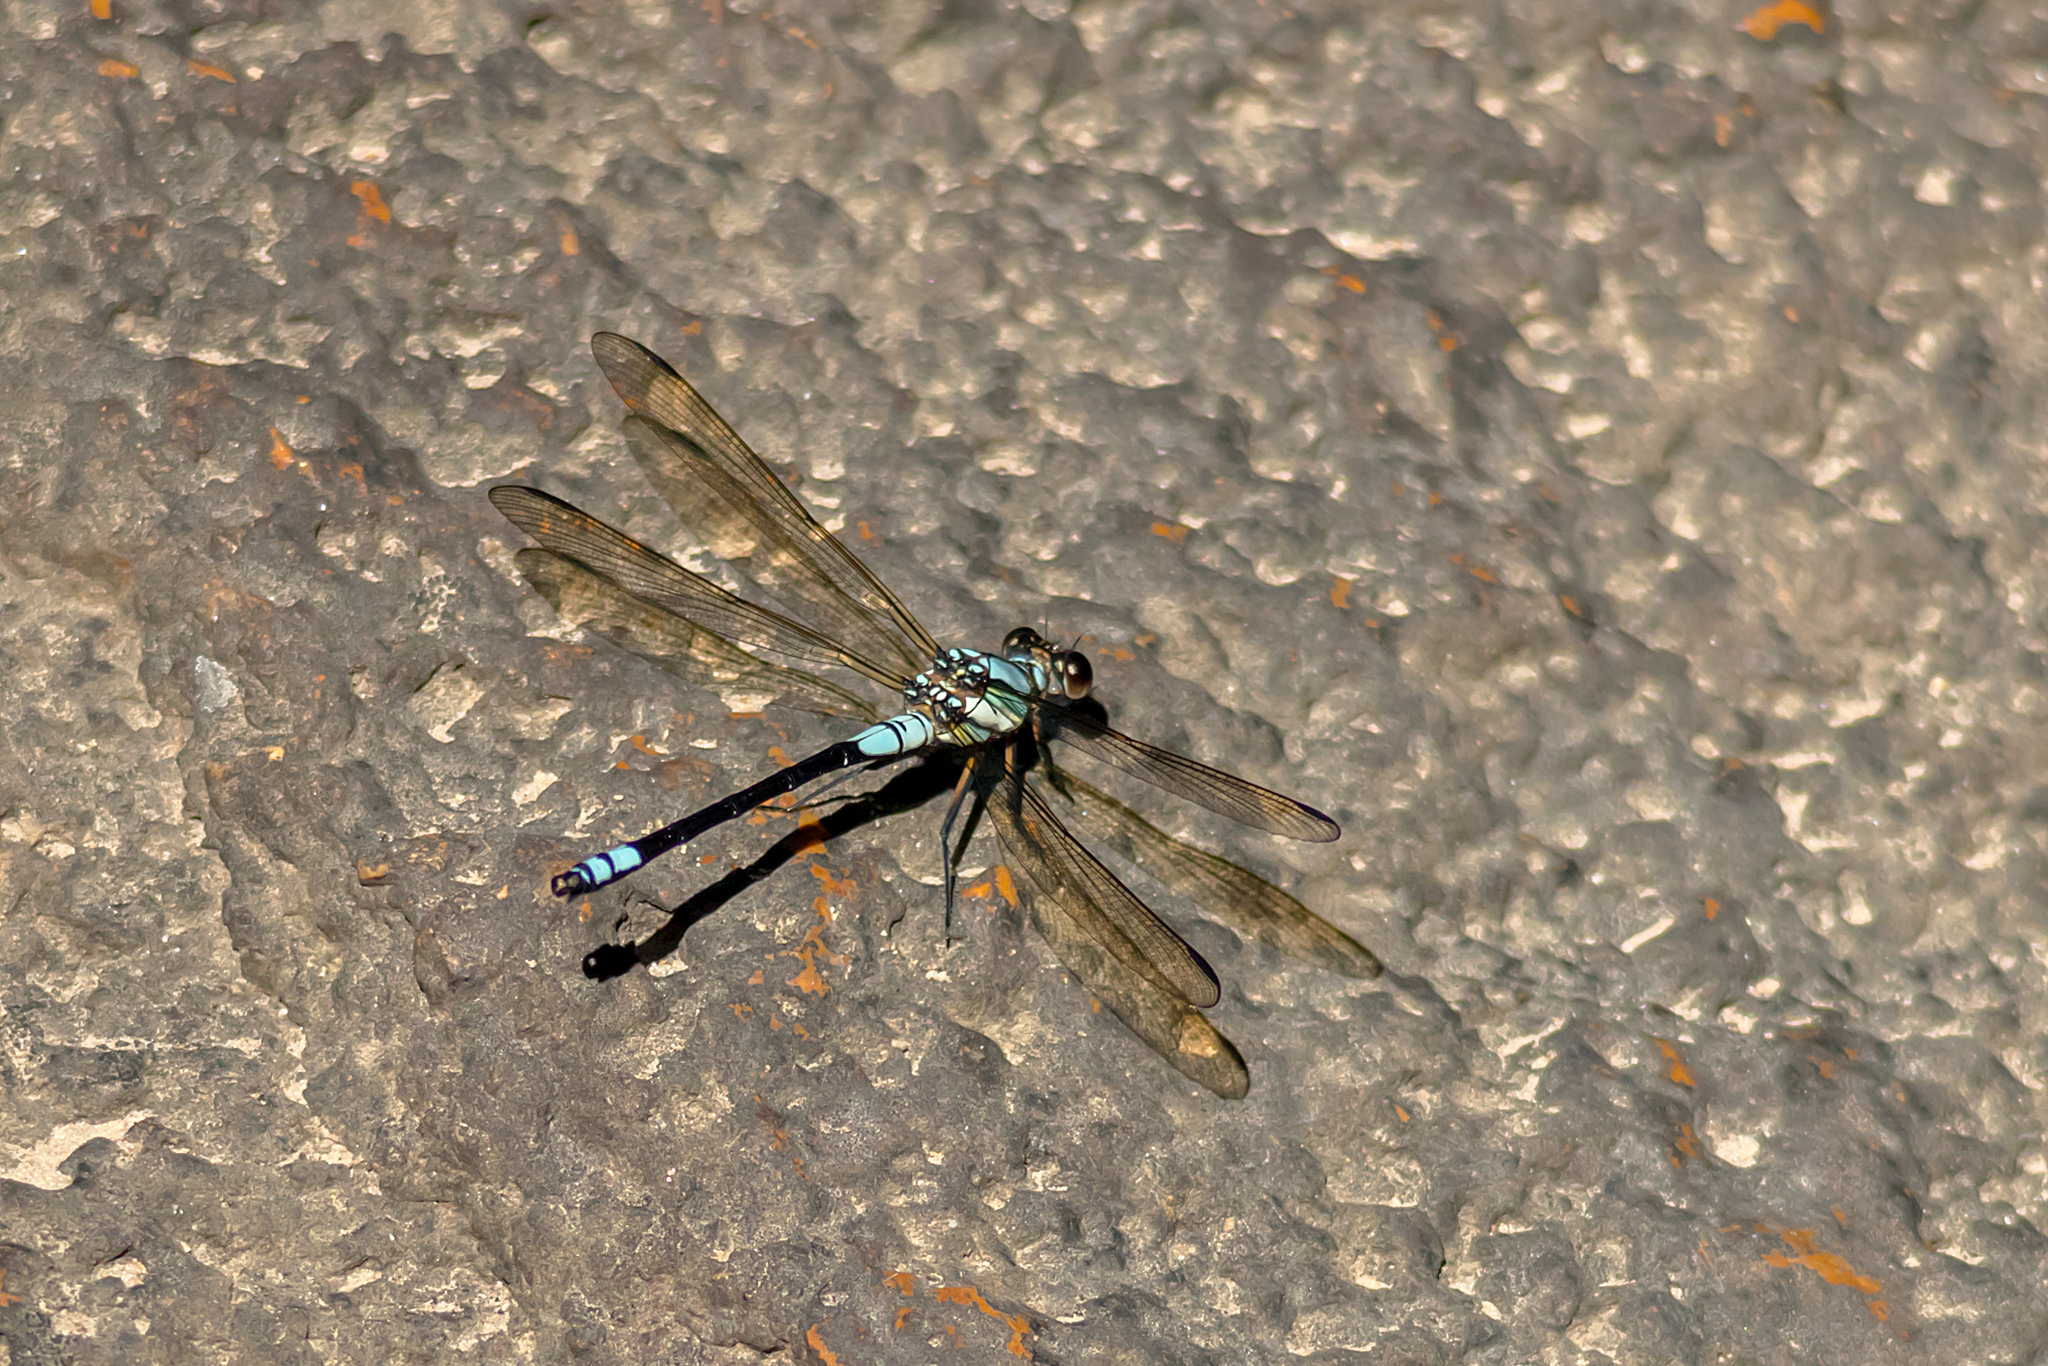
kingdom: Animalia
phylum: Arthropoda
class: Insecta
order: Odonata
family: Lestoideidae
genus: Diphlebia
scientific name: Diphlebia euphoeoides
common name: Tropical rockmaster
